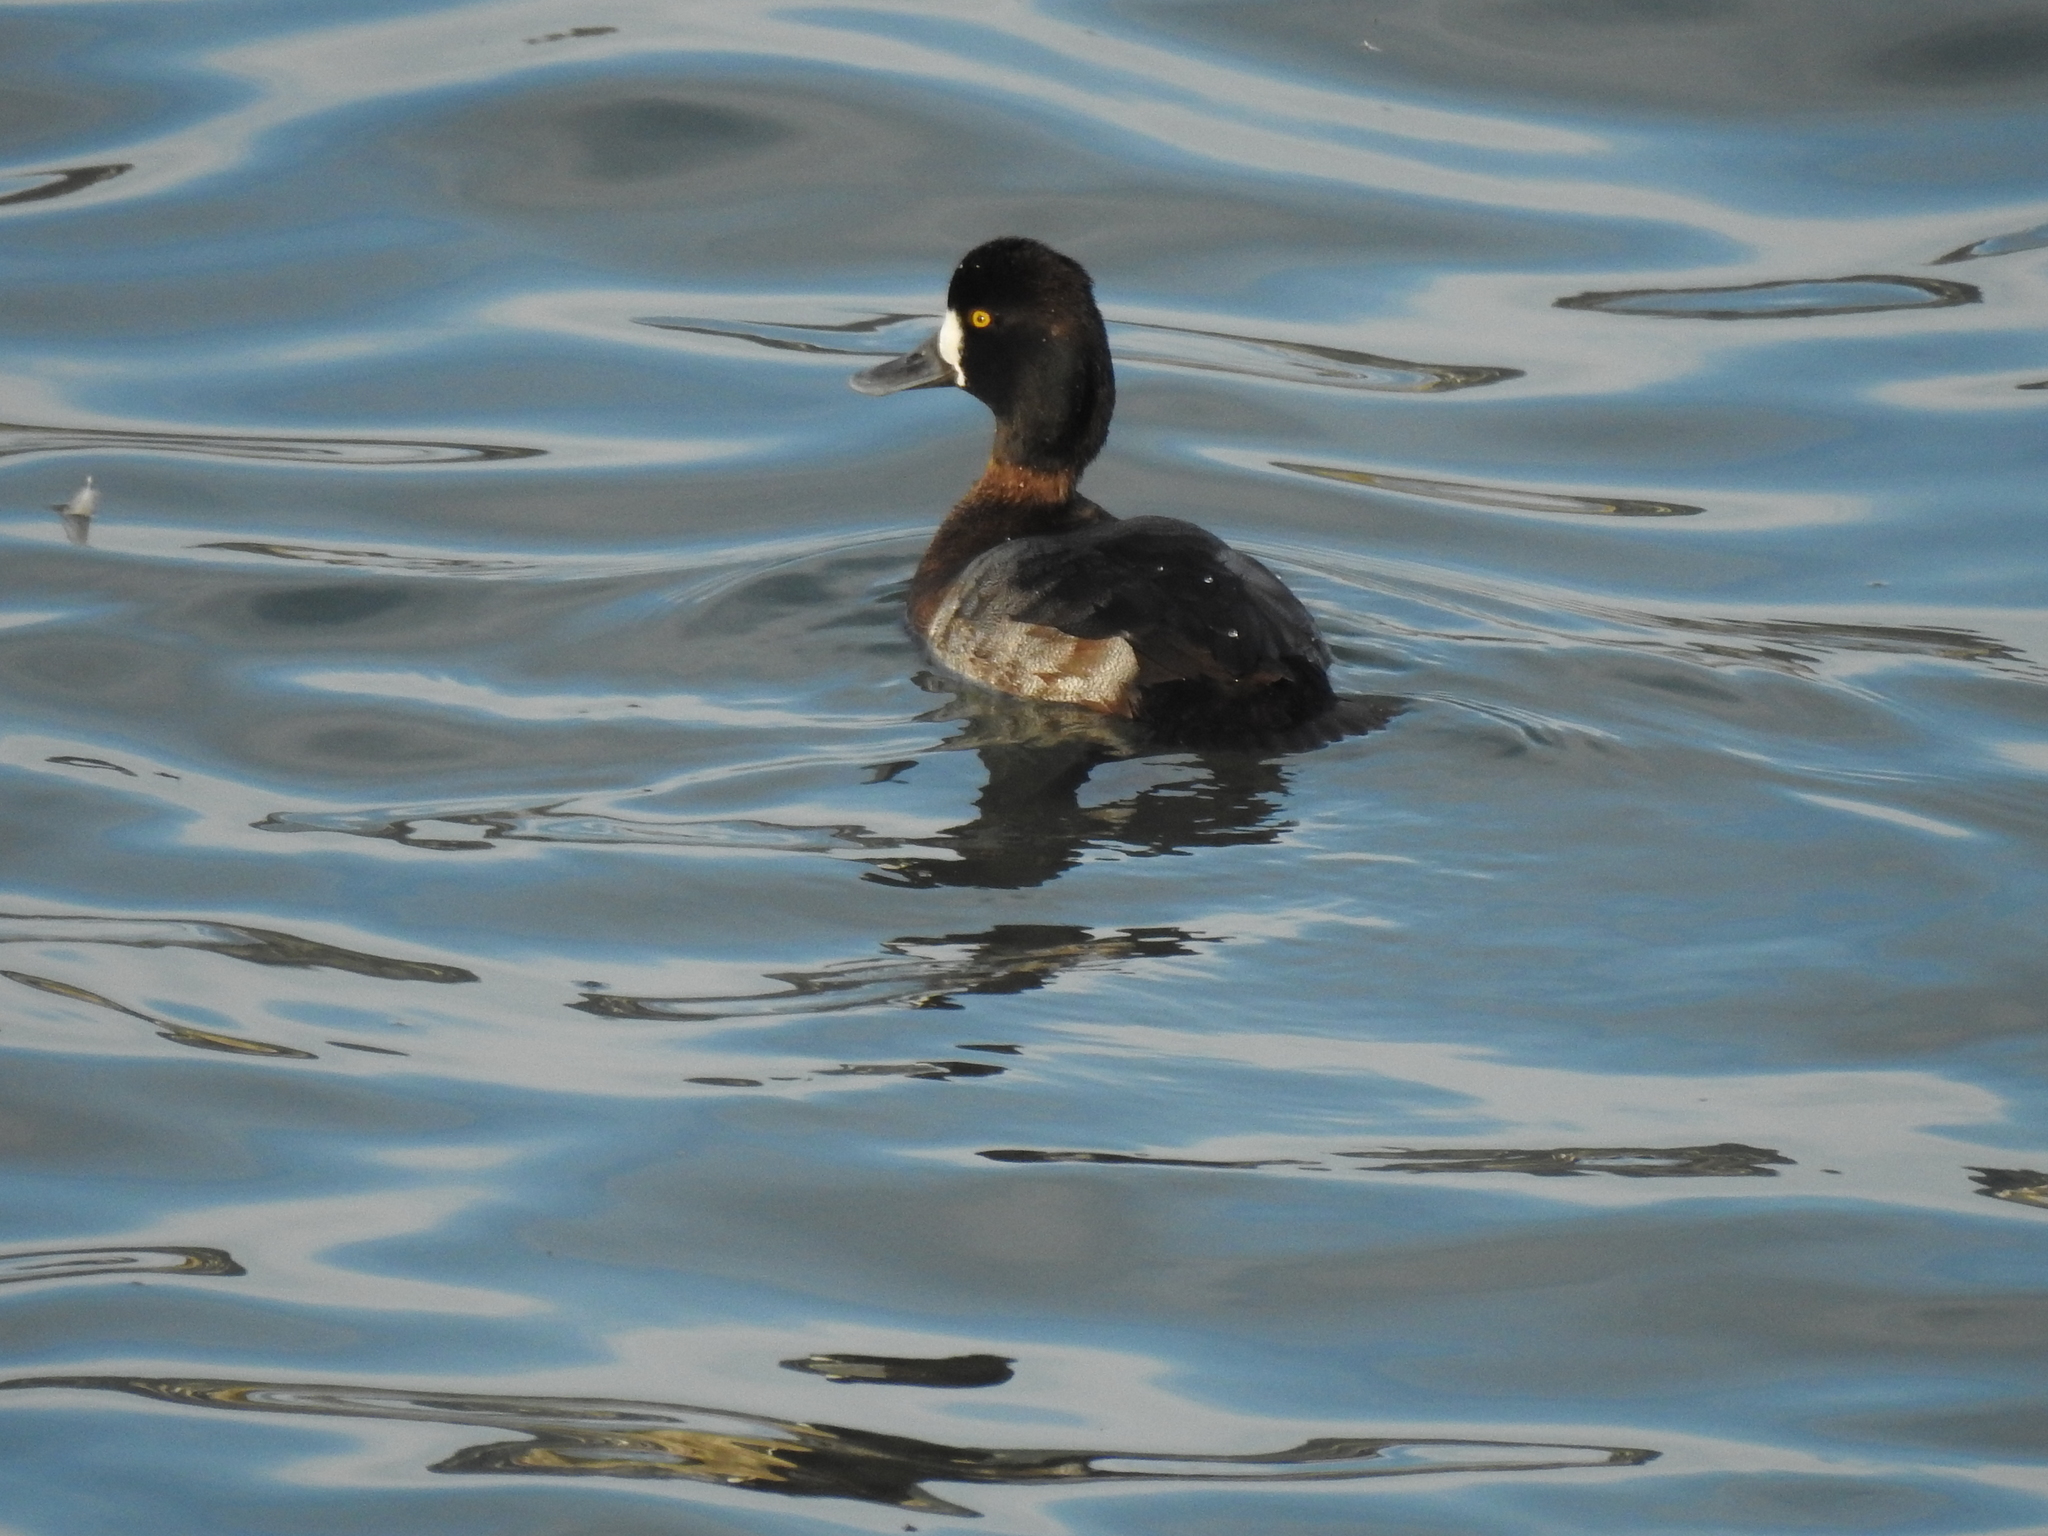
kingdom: Animalia
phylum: Chordata
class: Aves
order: Anseriformes
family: Anatidae
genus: Aythya
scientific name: Aythya affinis
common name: Lesser scaup
